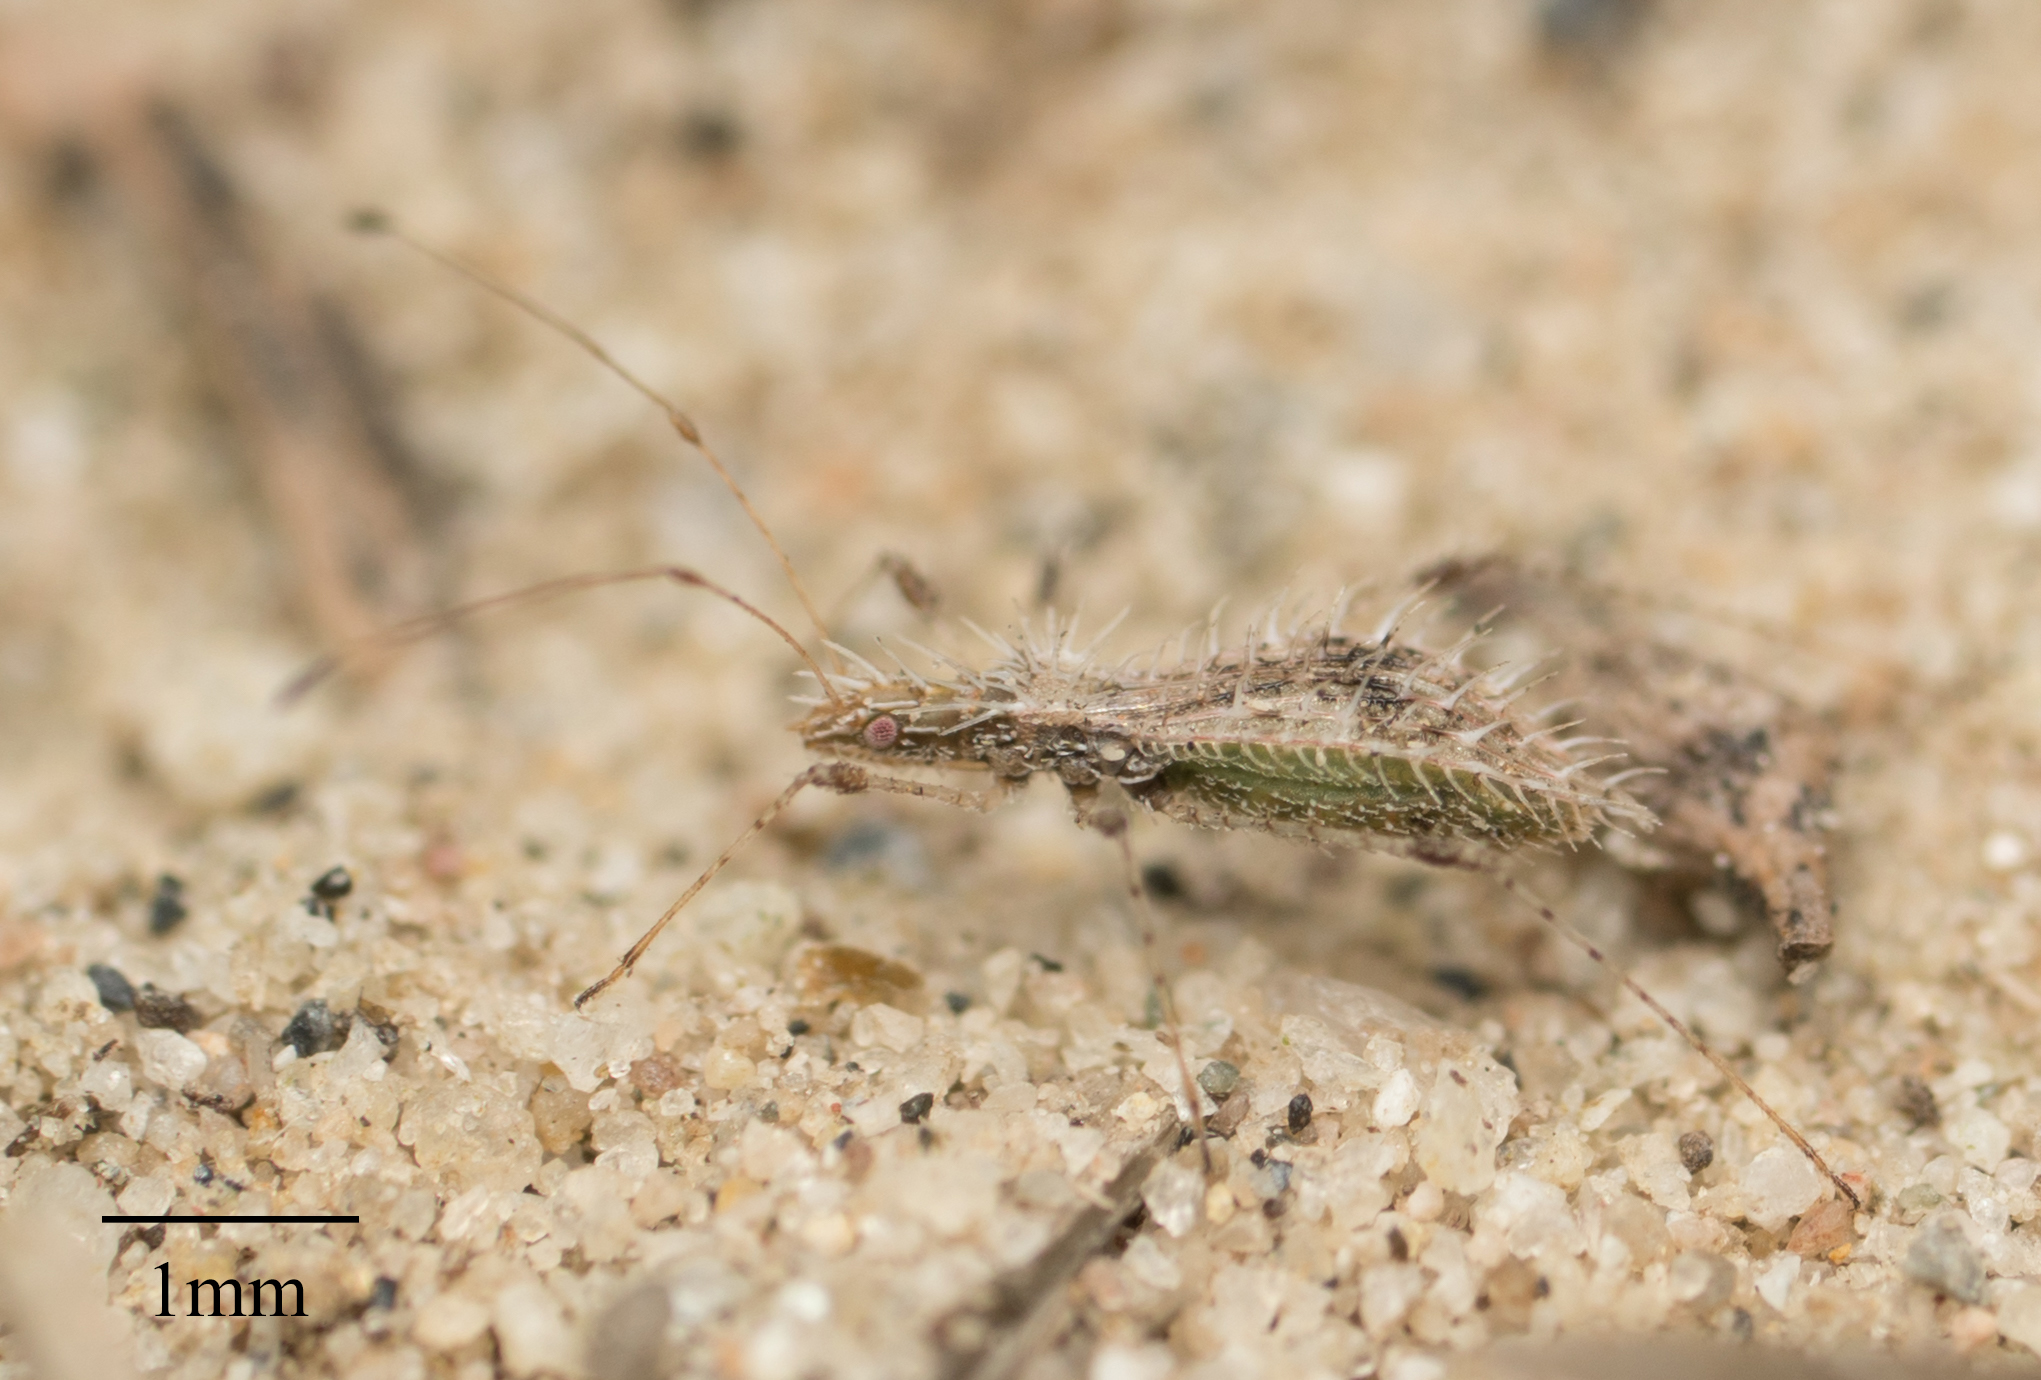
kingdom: Animalia
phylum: Arthropoda
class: Insecta
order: Hemiptera
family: Berytidae
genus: Hoplinus
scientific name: Hoplinus echinatus
